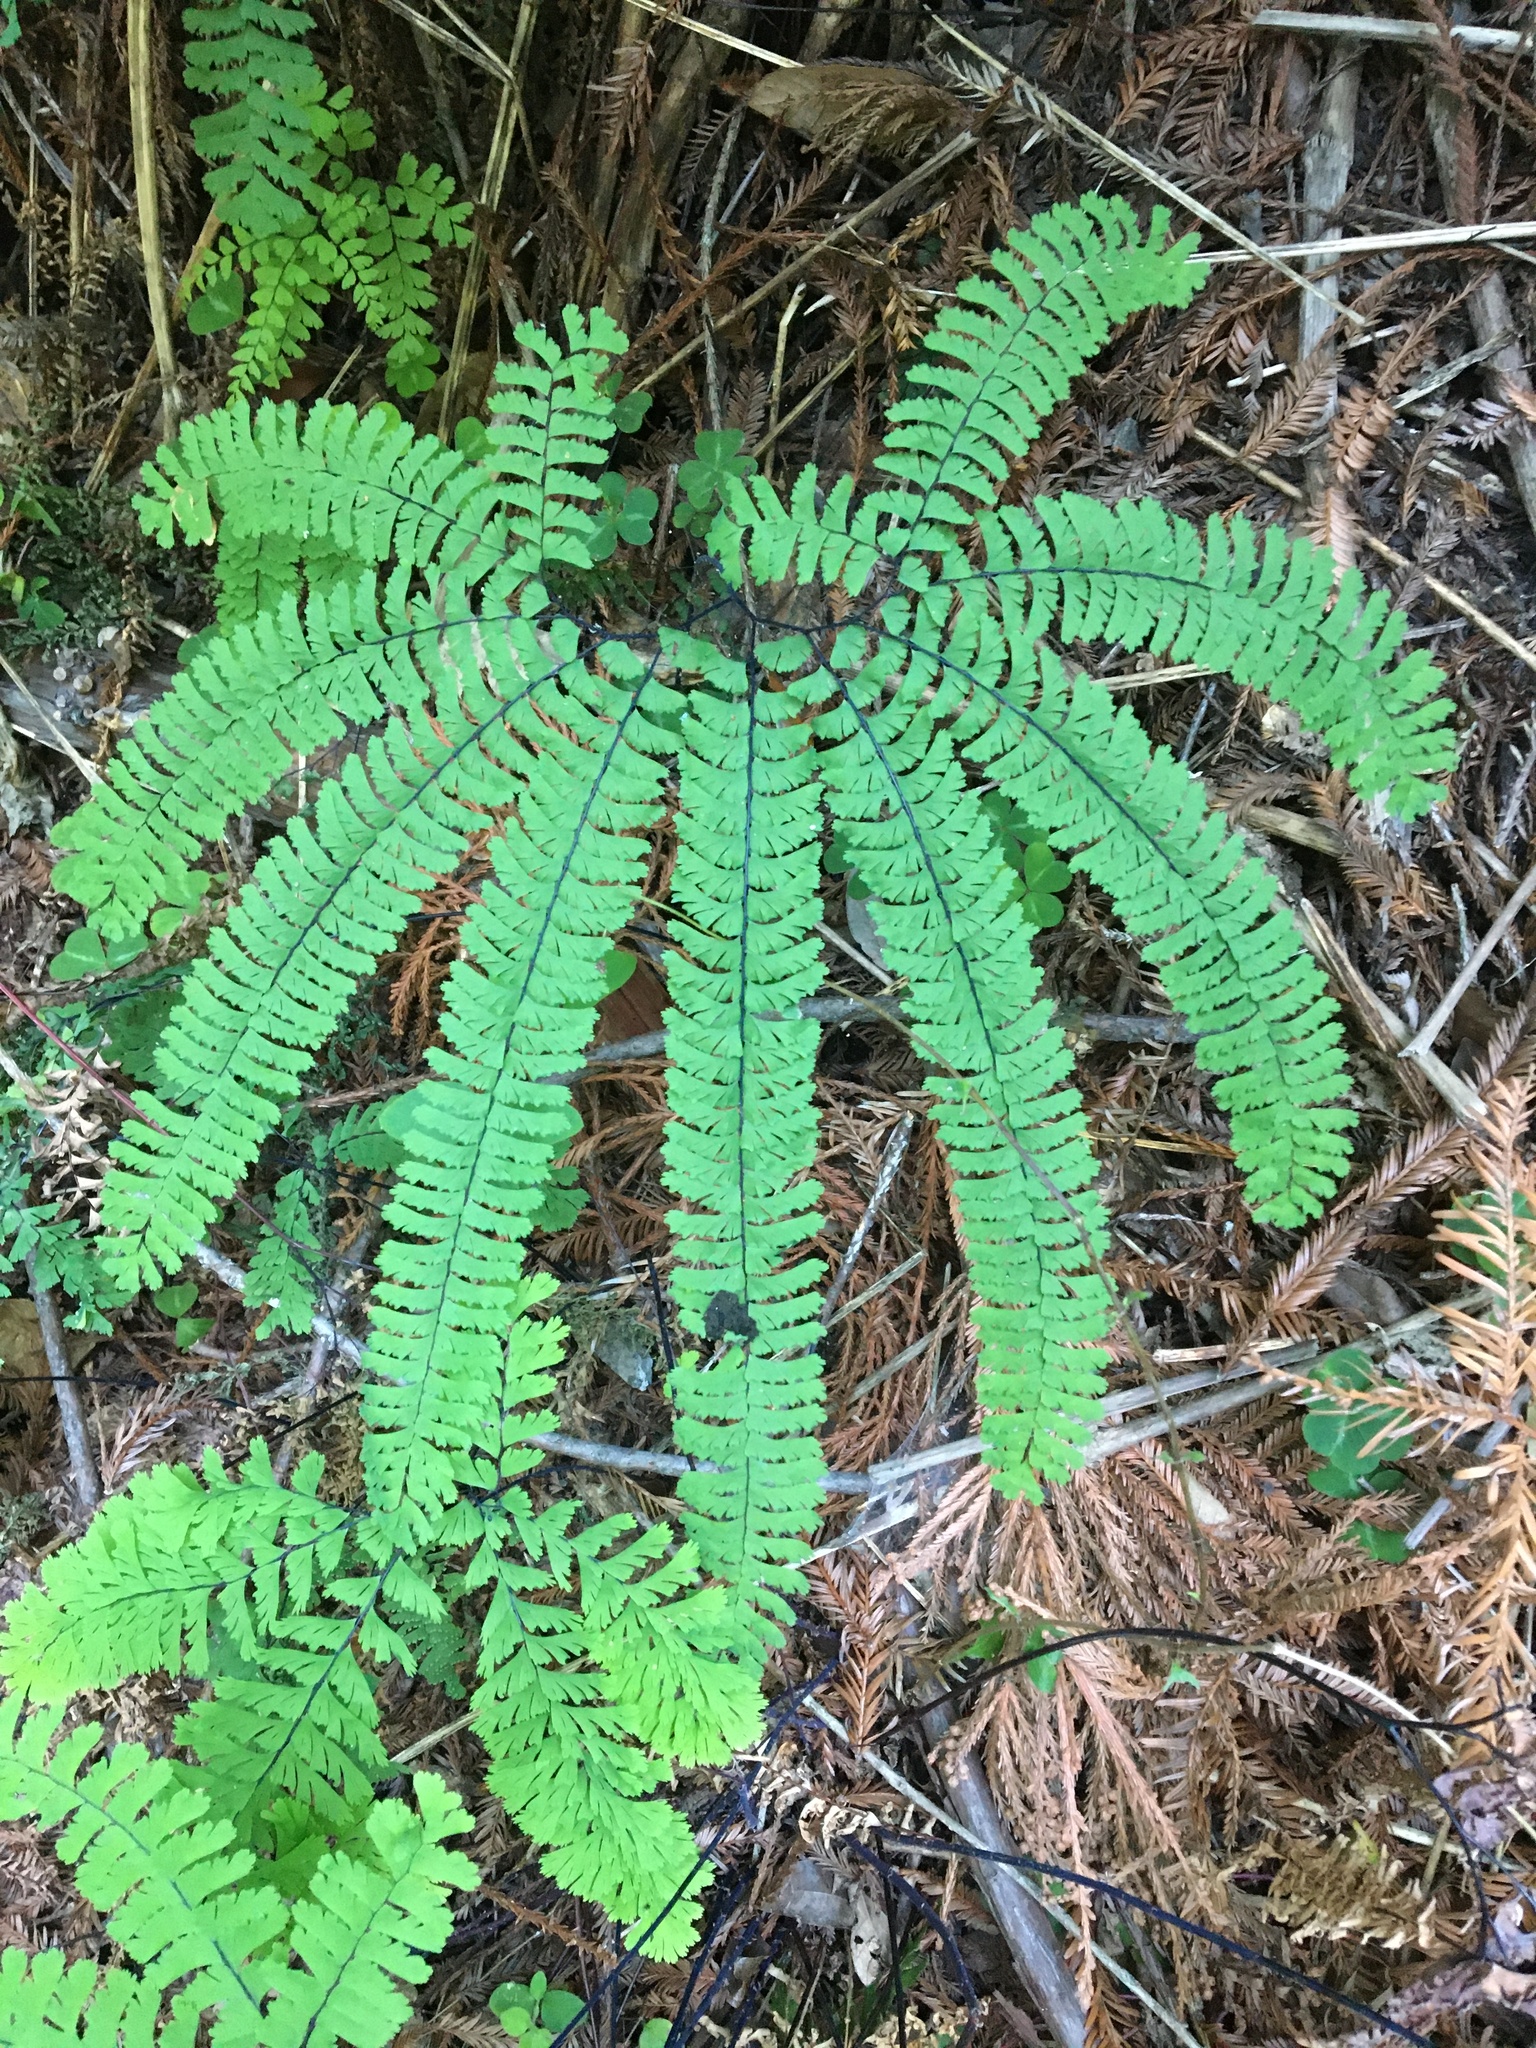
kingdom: Plantae
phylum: Tracheophyta
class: Polypodiopsida
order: Polypodiales
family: Pteridaceae
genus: Adiantum
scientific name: Adiantum aleuticum
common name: Aleutian maidenhair fern
